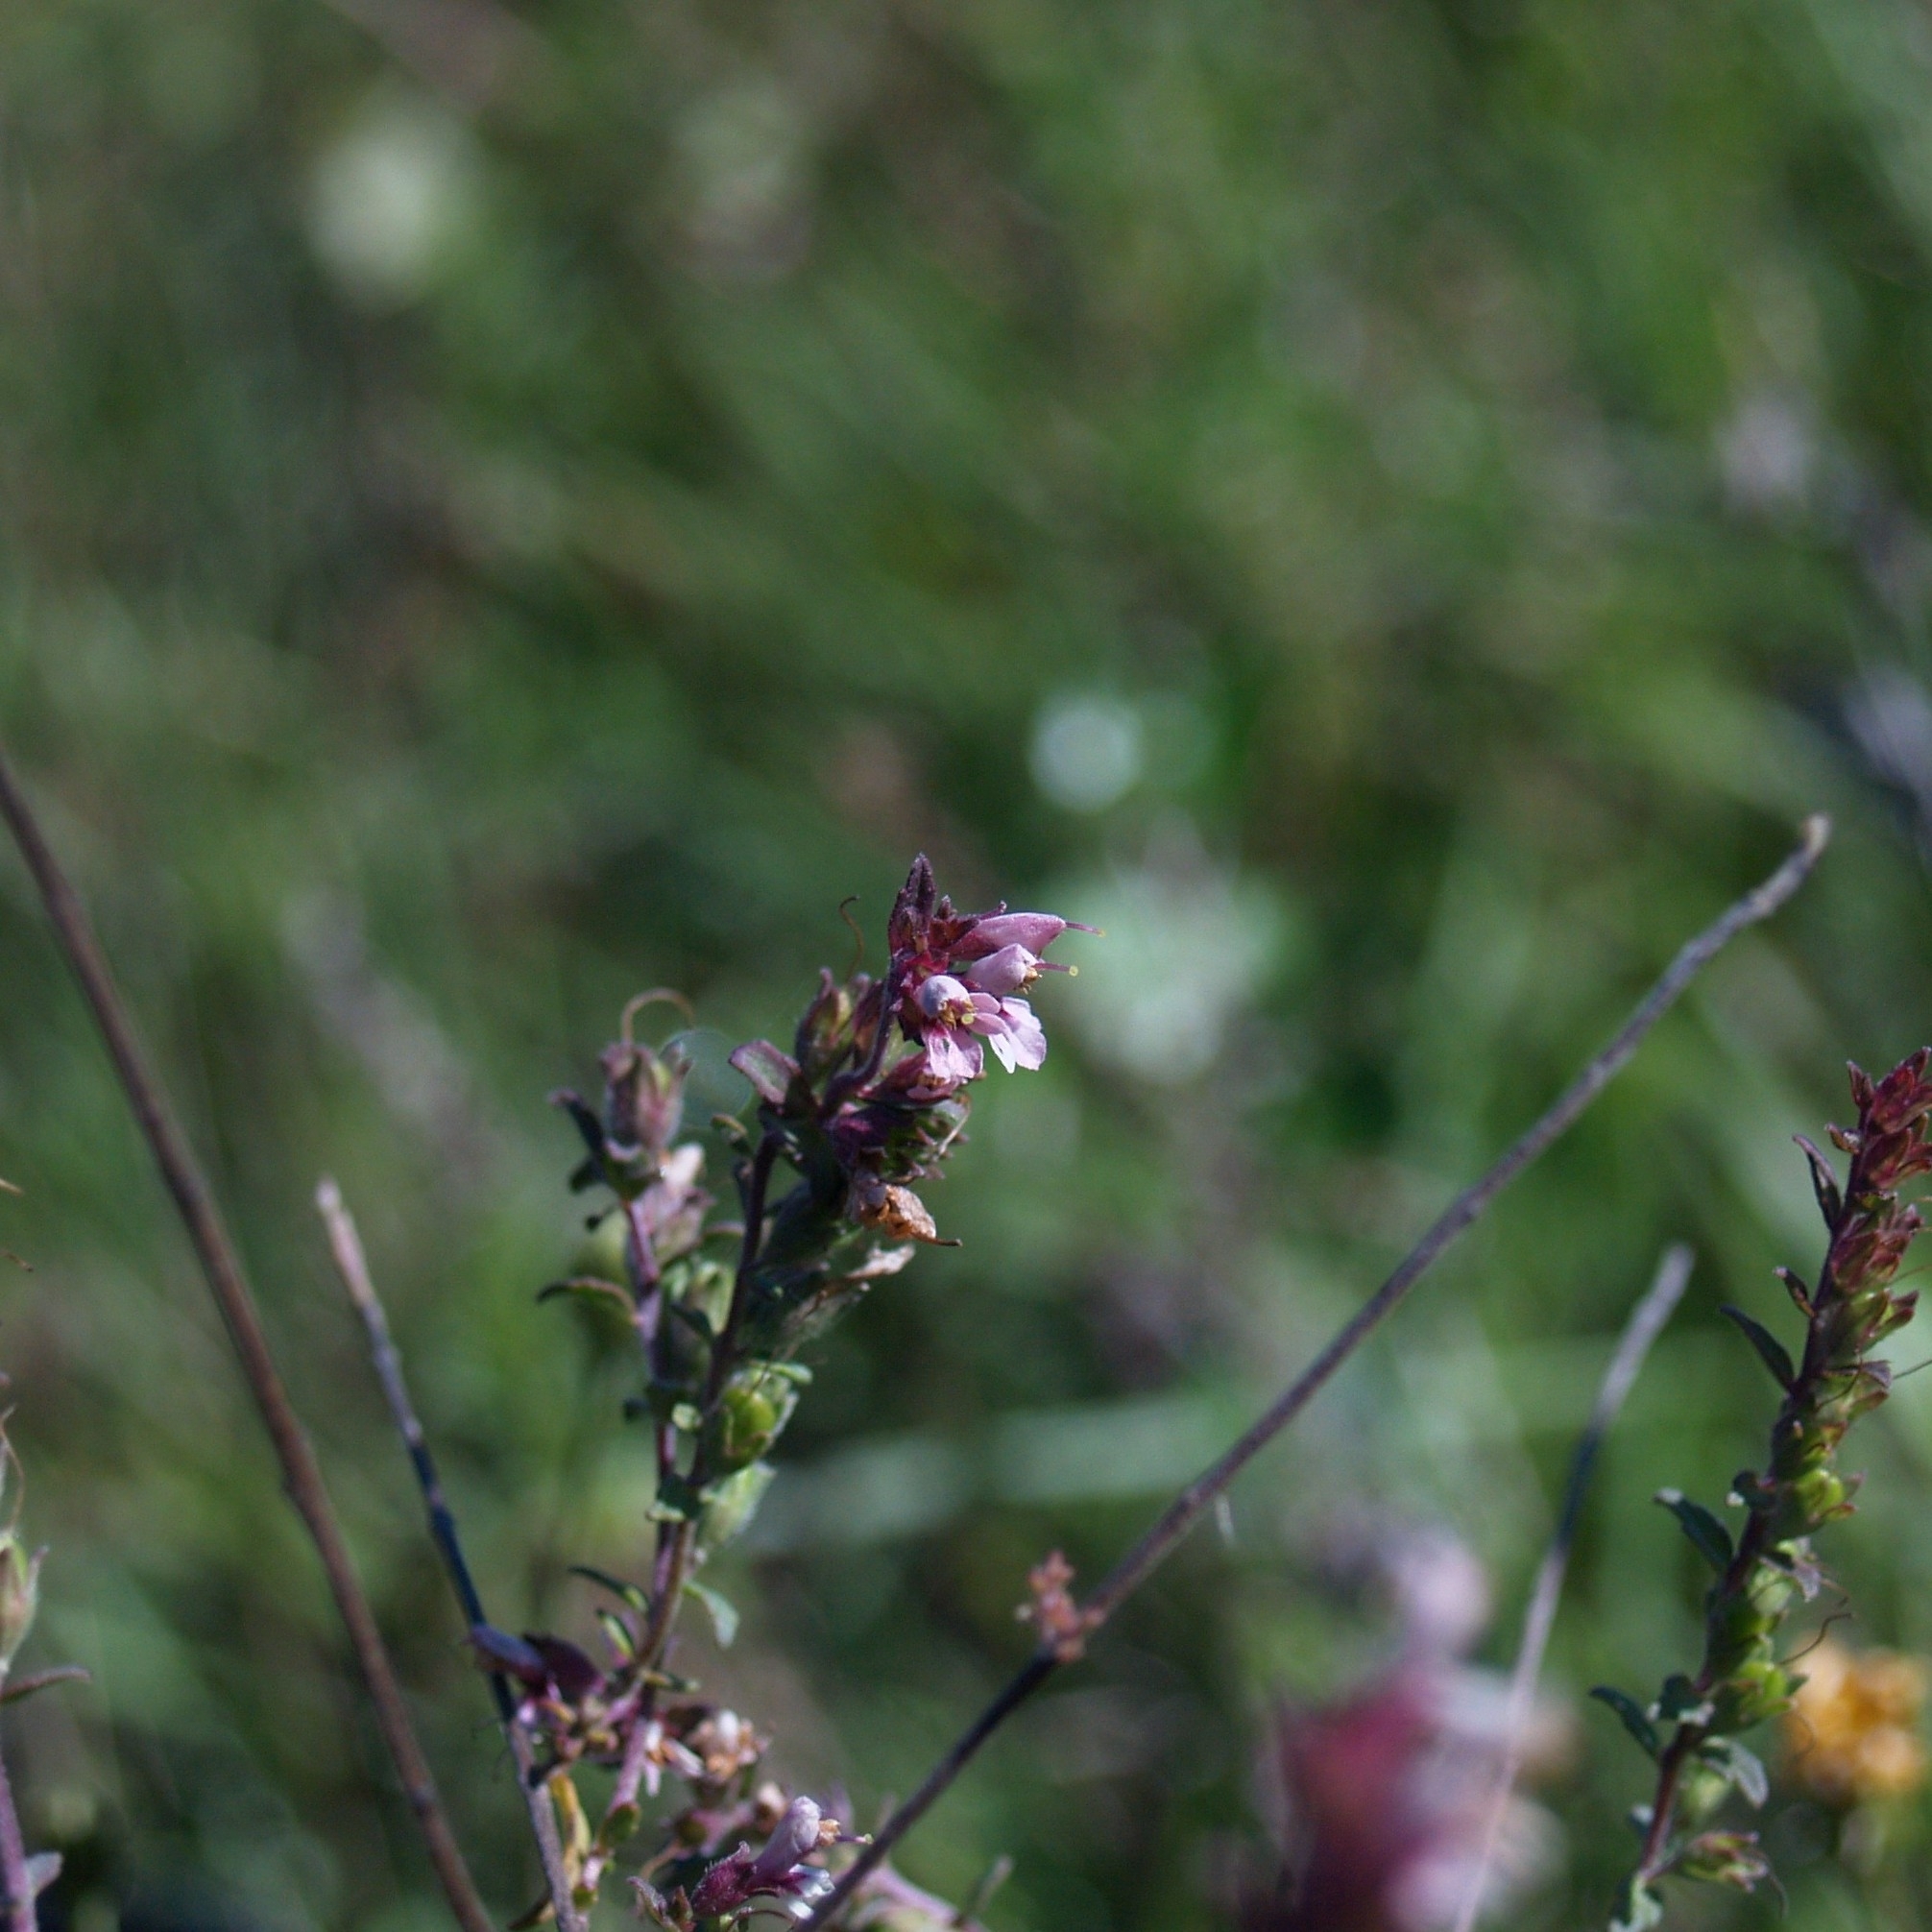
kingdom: Plantae
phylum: Tracheophyta
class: Magnoliopsida
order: Lamiales
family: Orobanchaceae
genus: Odontites
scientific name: Odontites vulgaris
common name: Broomrape
